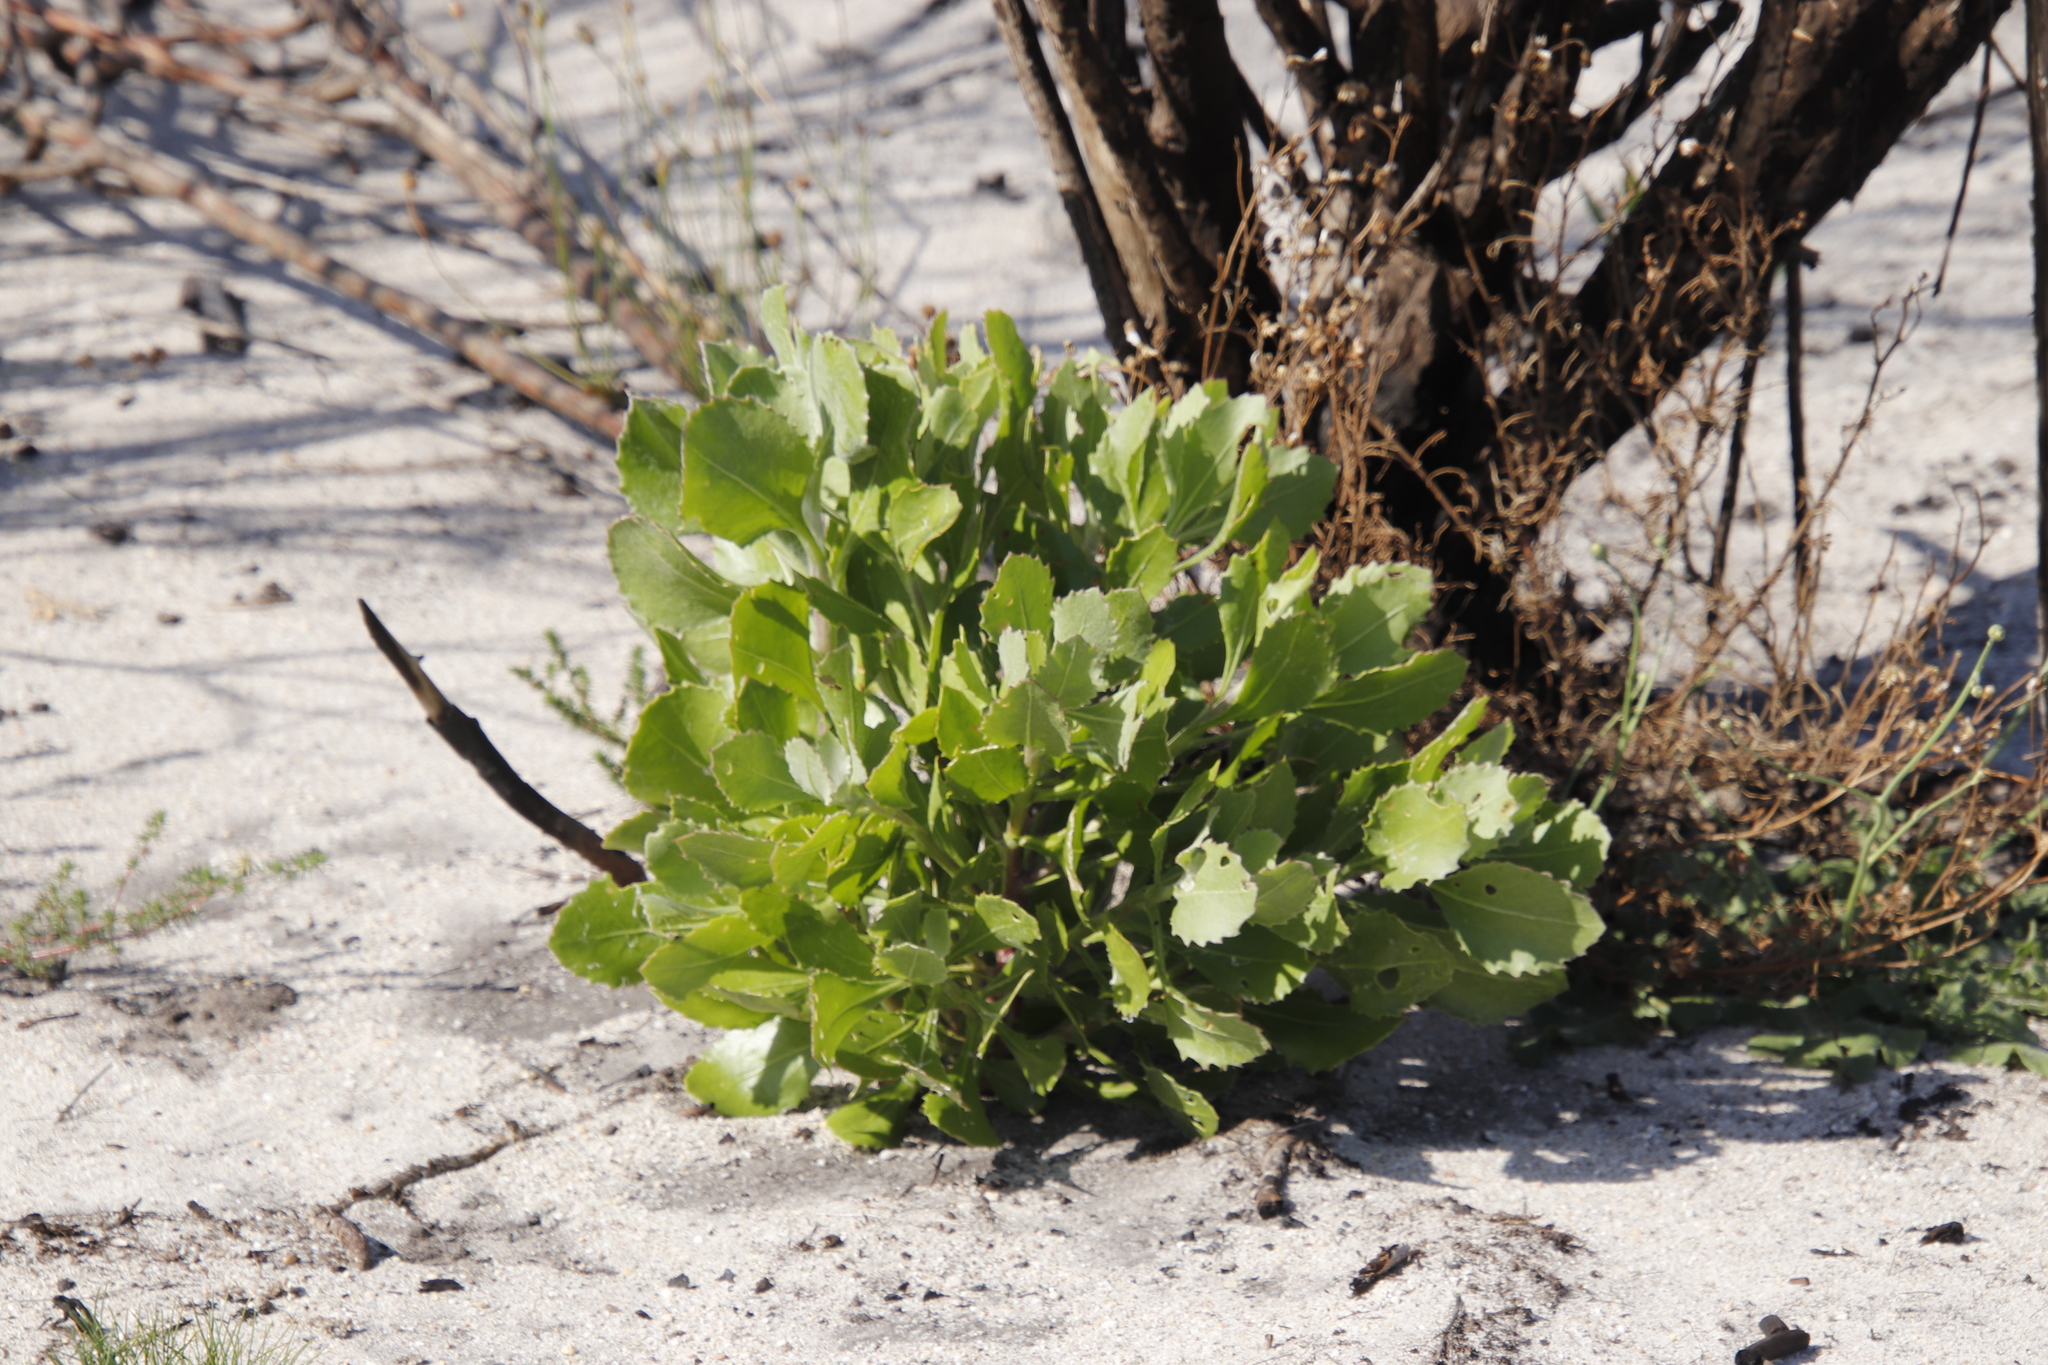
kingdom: Plantae
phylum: Tracheophyta
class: Magnoliopsida
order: Asterales
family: Asteraceae
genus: Osteospermum
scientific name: Osteospermum moniliferum
